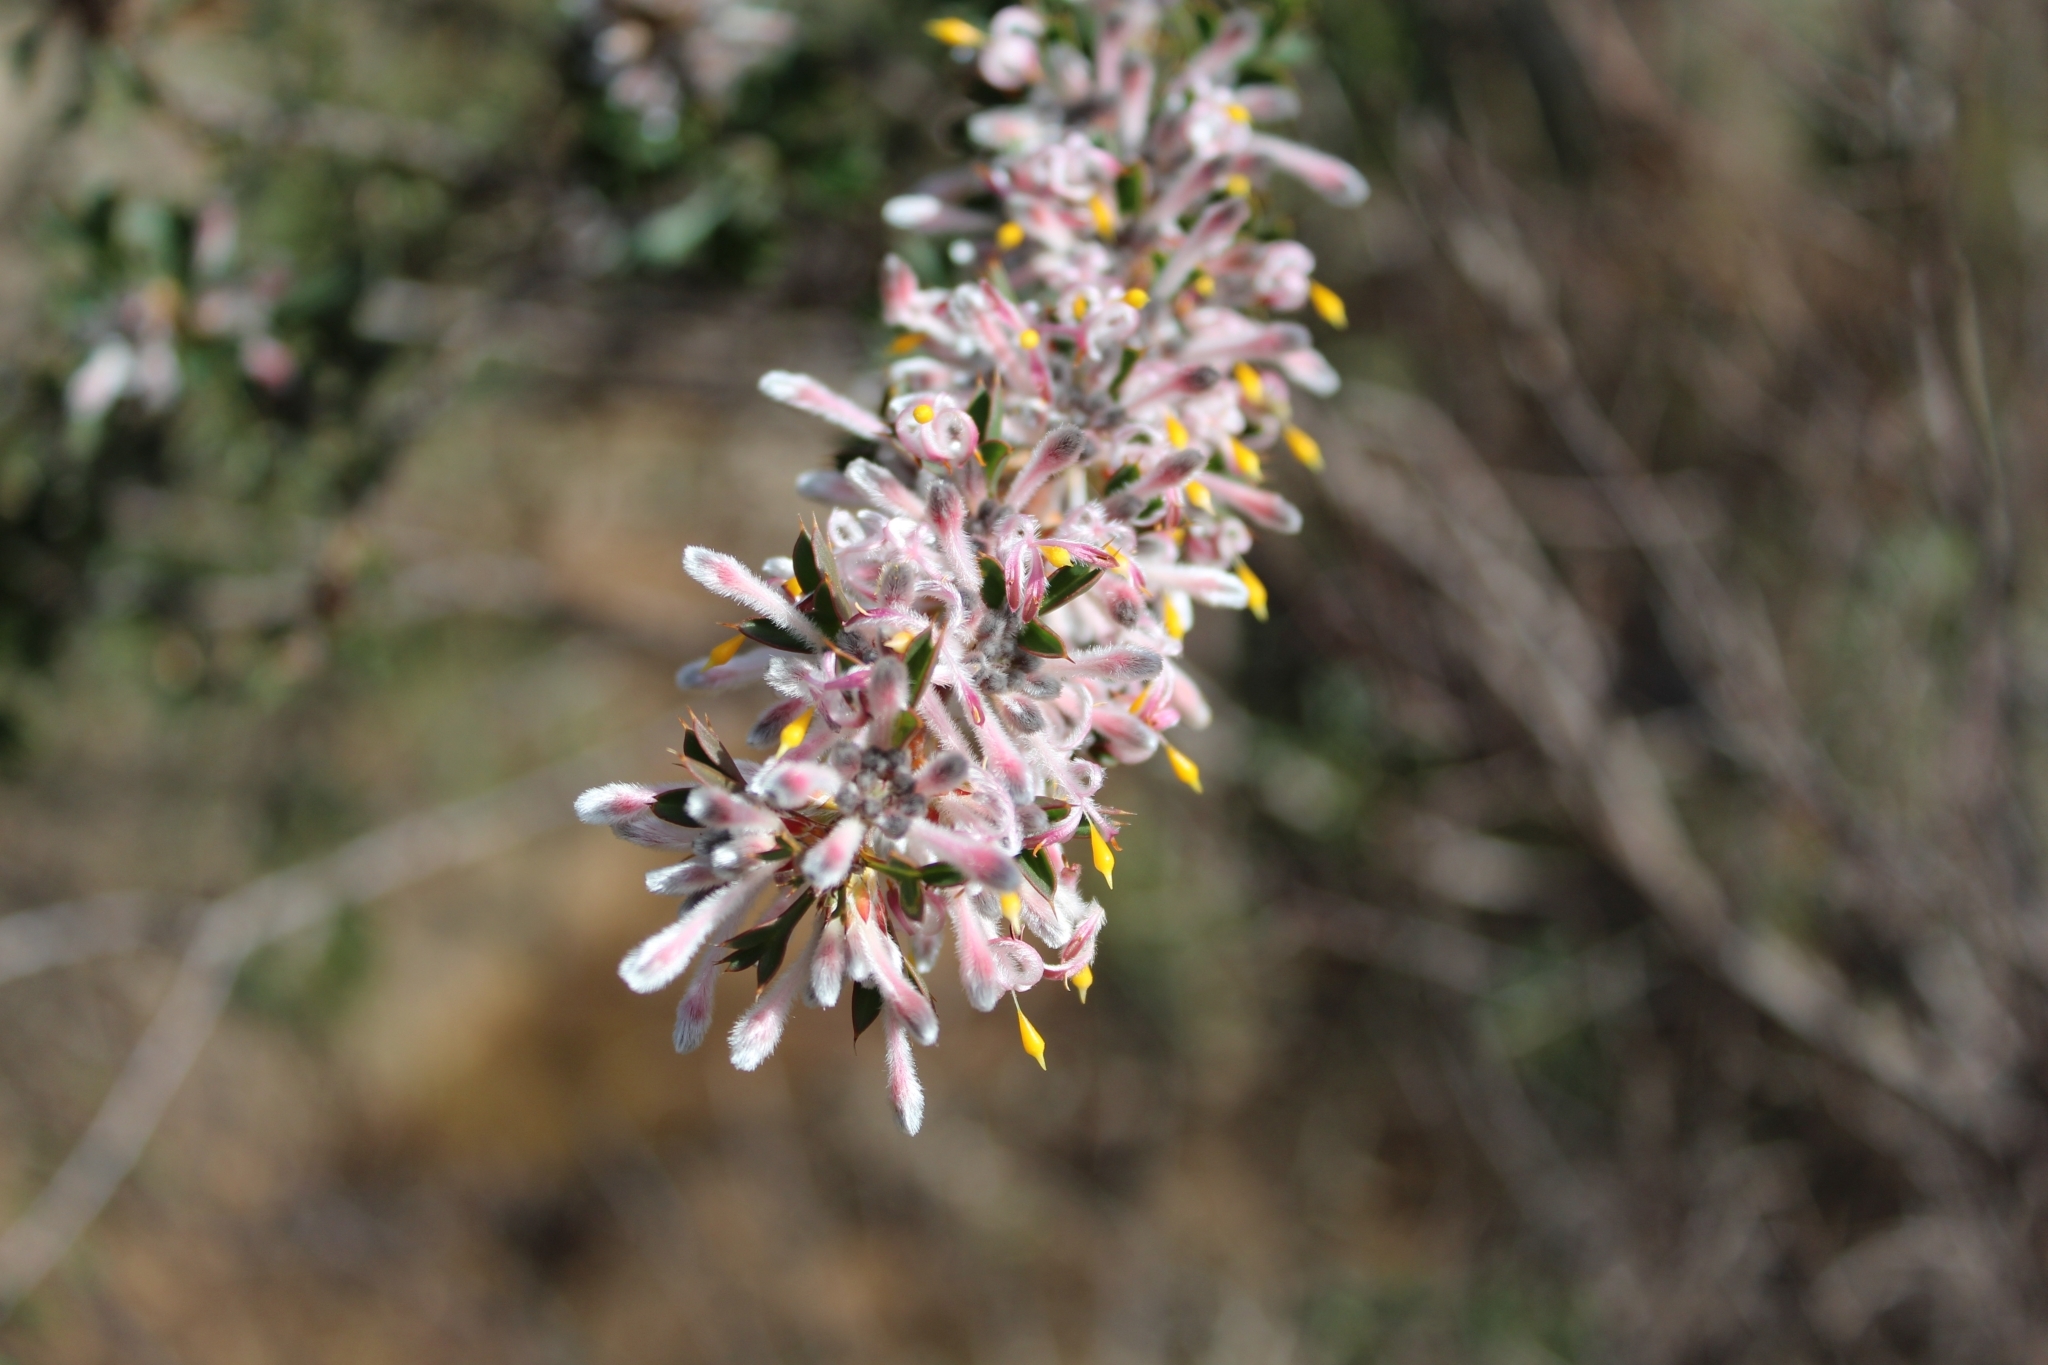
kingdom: Plantae
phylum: Tracheophyta
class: Magnoliopsida
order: Proteales
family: Proteaceae
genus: Petrophile
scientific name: Petrophile biloba
